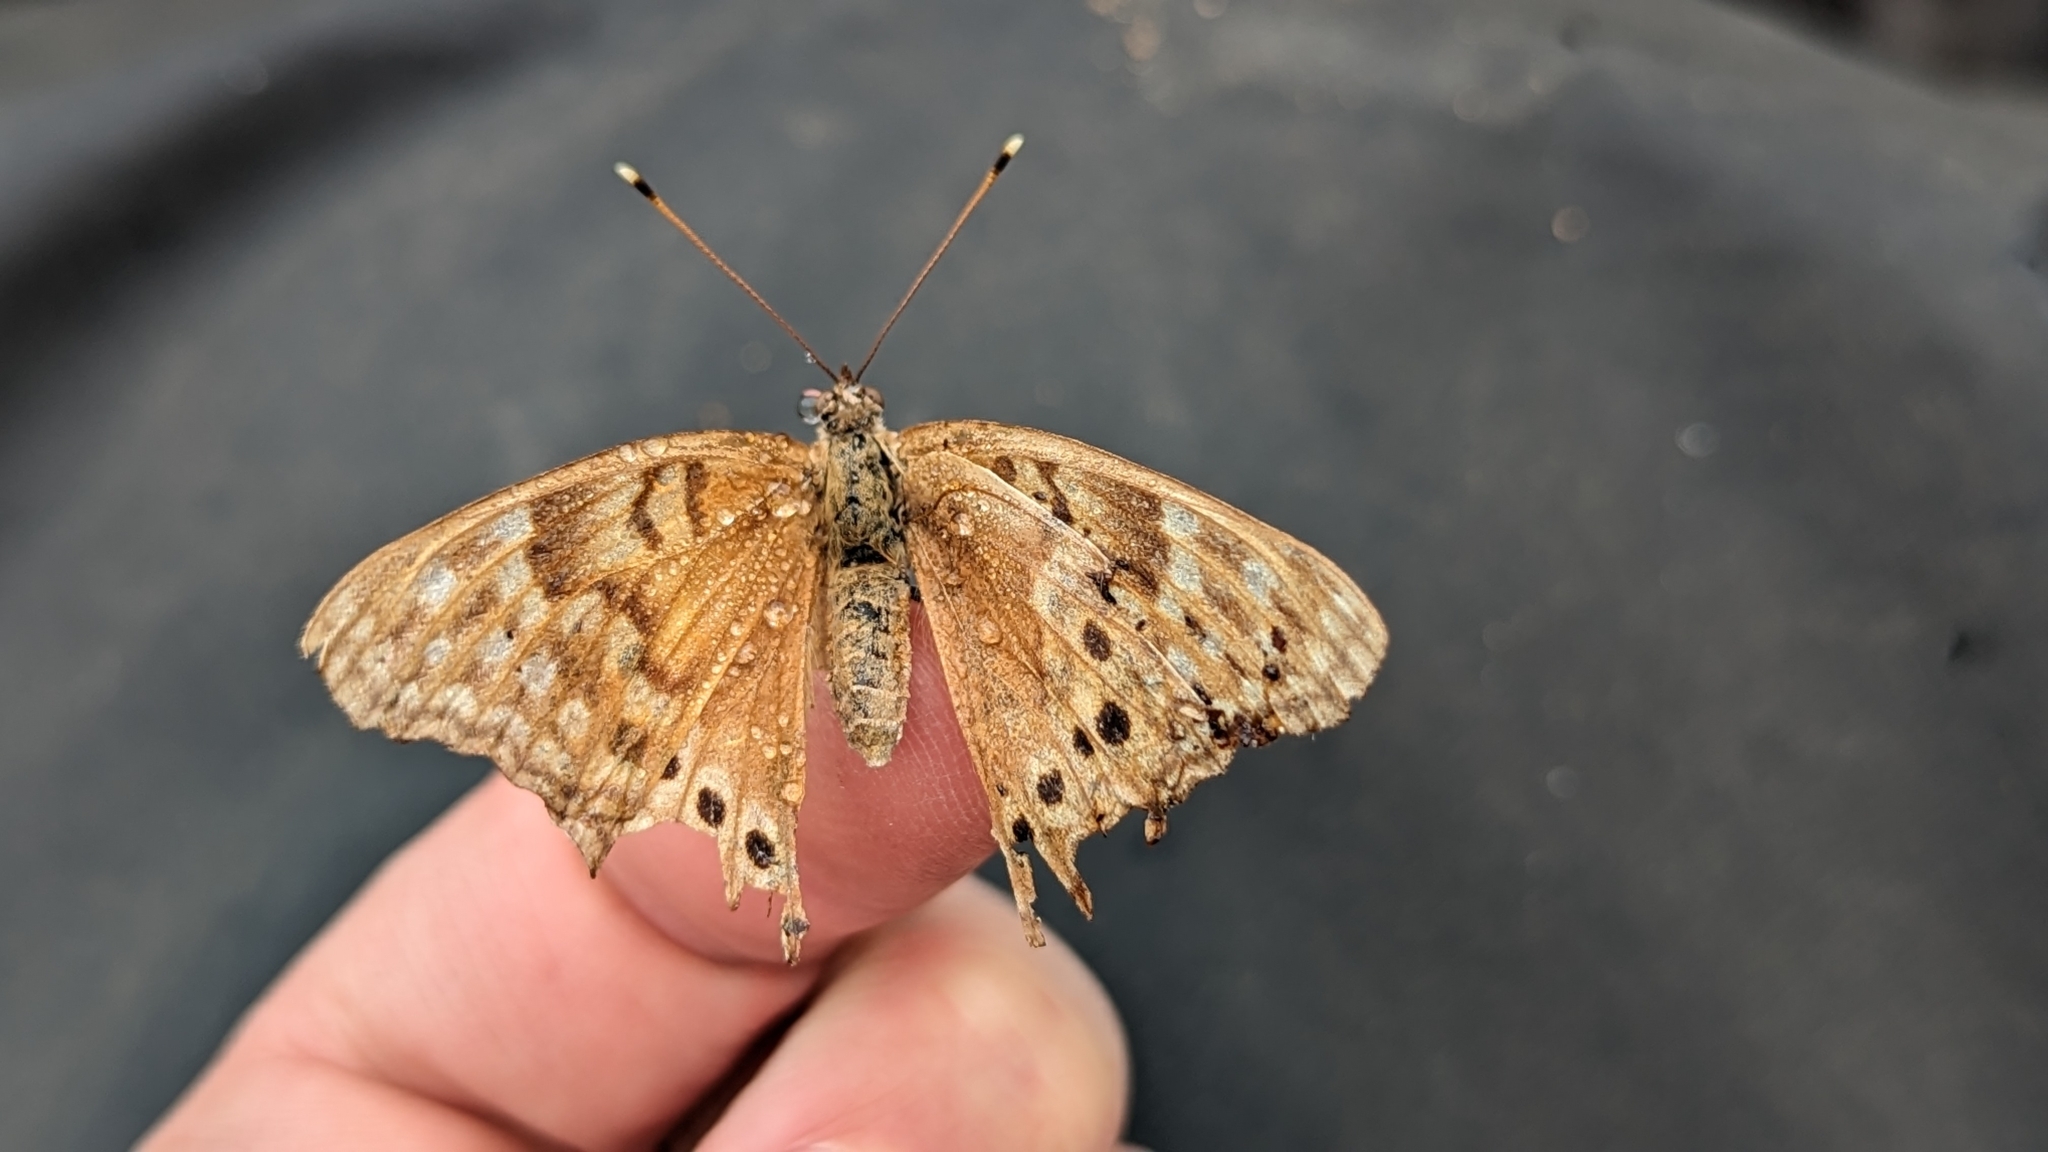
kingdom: Animalia
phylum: Arthropoda
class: Insecta
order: Lepidoptera
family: Nymphalidae
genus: Asterocampa
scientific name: Asterocampa clyton
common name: Tawny emperor
